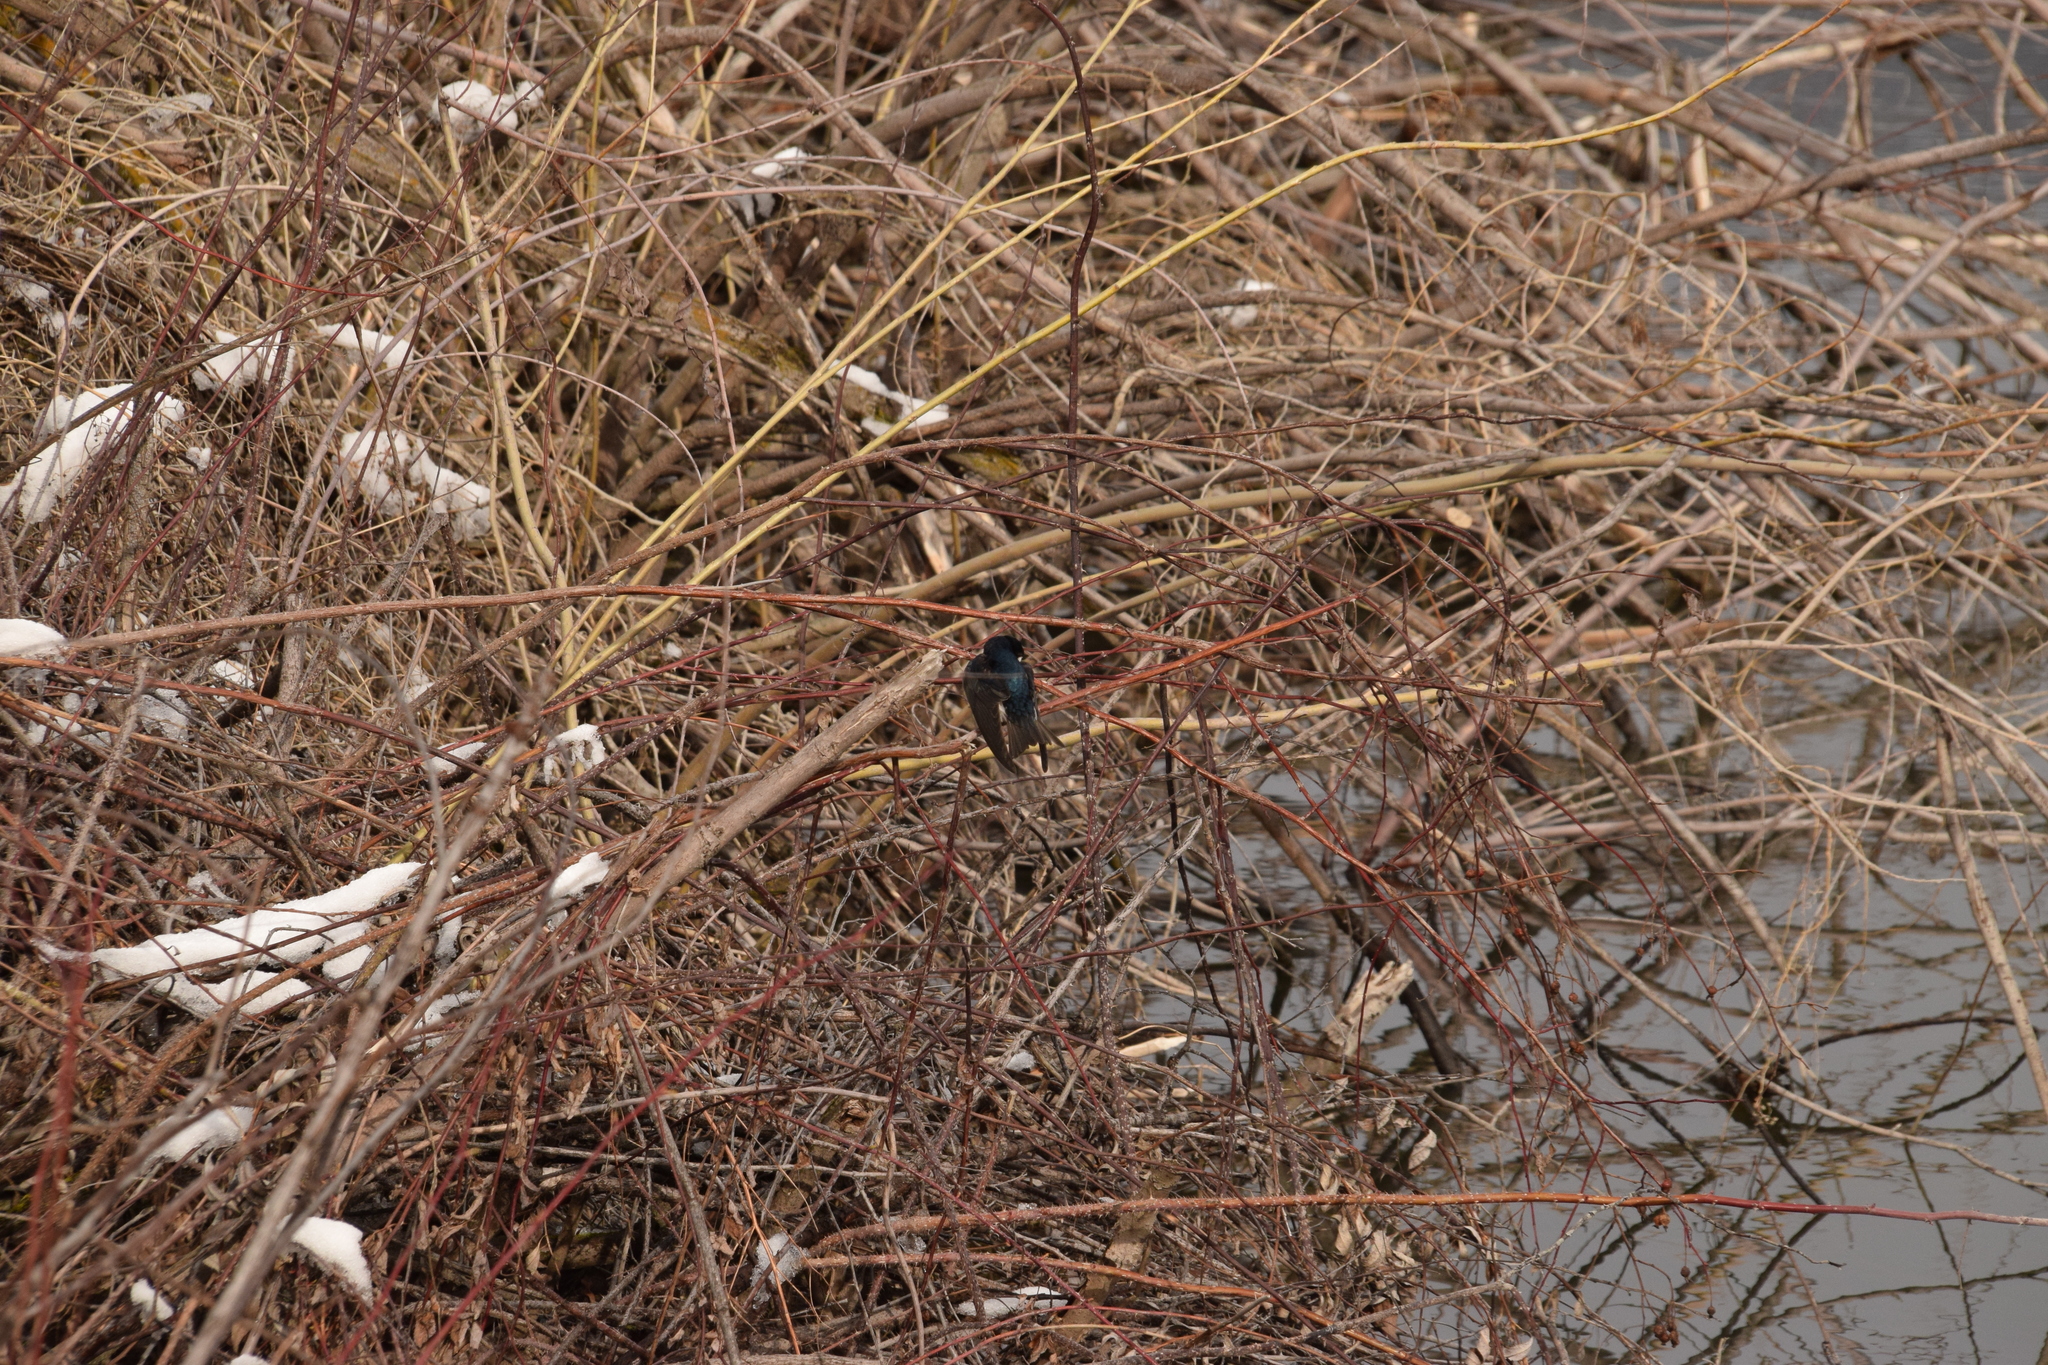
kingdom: Animalia
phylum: Chordata
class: Aves
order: Passeriformes
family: Hirundinidae
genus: Tachycineta
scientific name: Tachycineta bicolor
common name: Tree swallow
